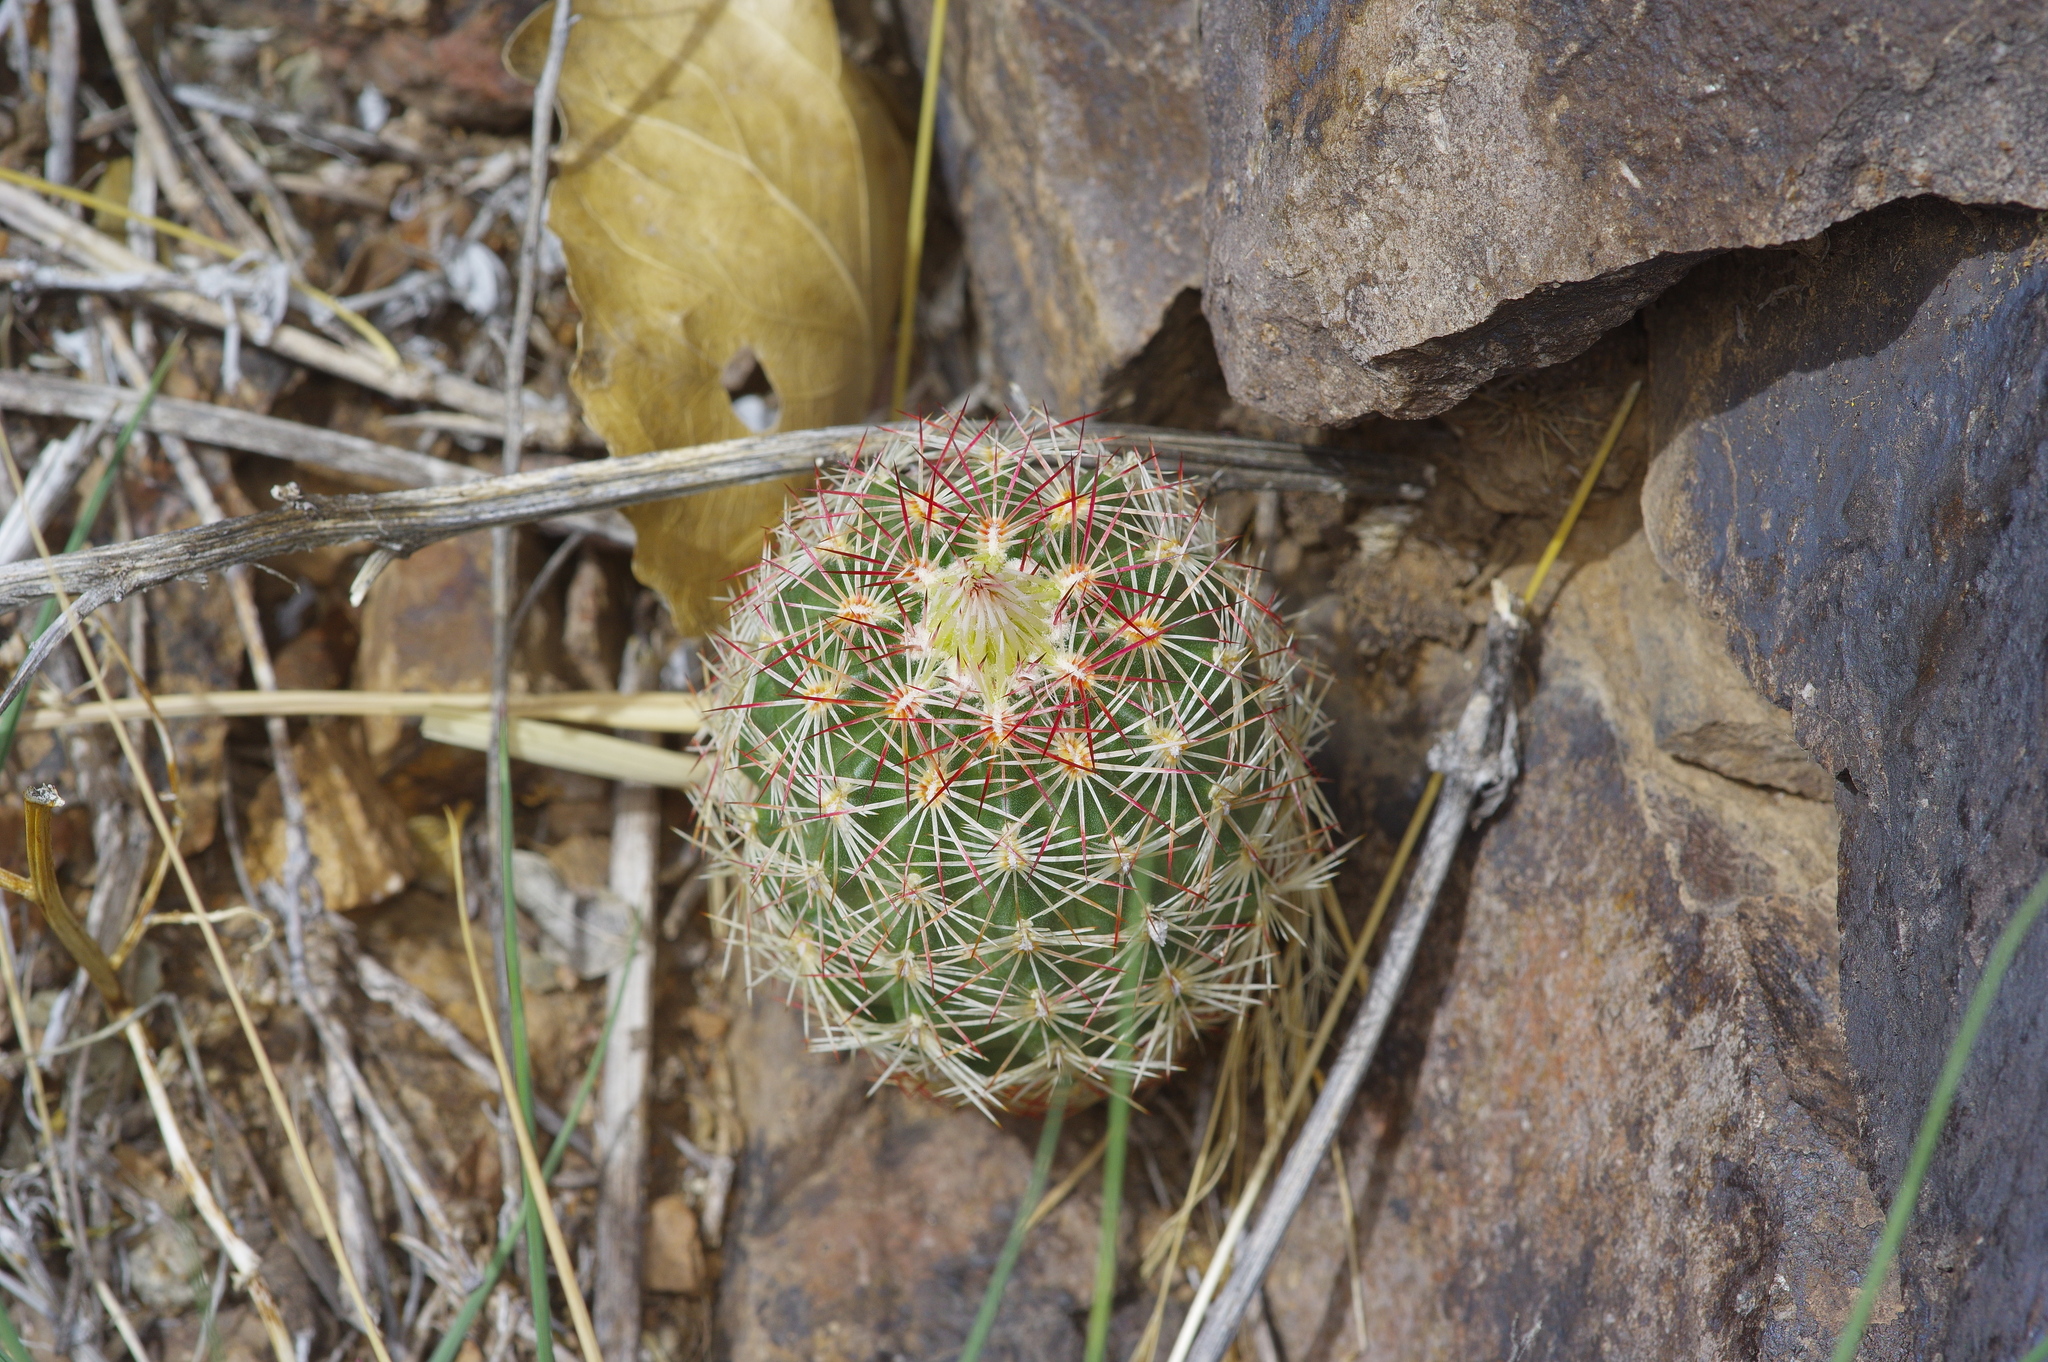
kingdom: Plantae
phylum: Tracheophyta
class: Magnoliopsida
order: Caryophyllales
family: Cactaceae
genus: Echinocereus
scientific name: Echinocereus viridiflorus
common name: Nylon hedgehog cactus
